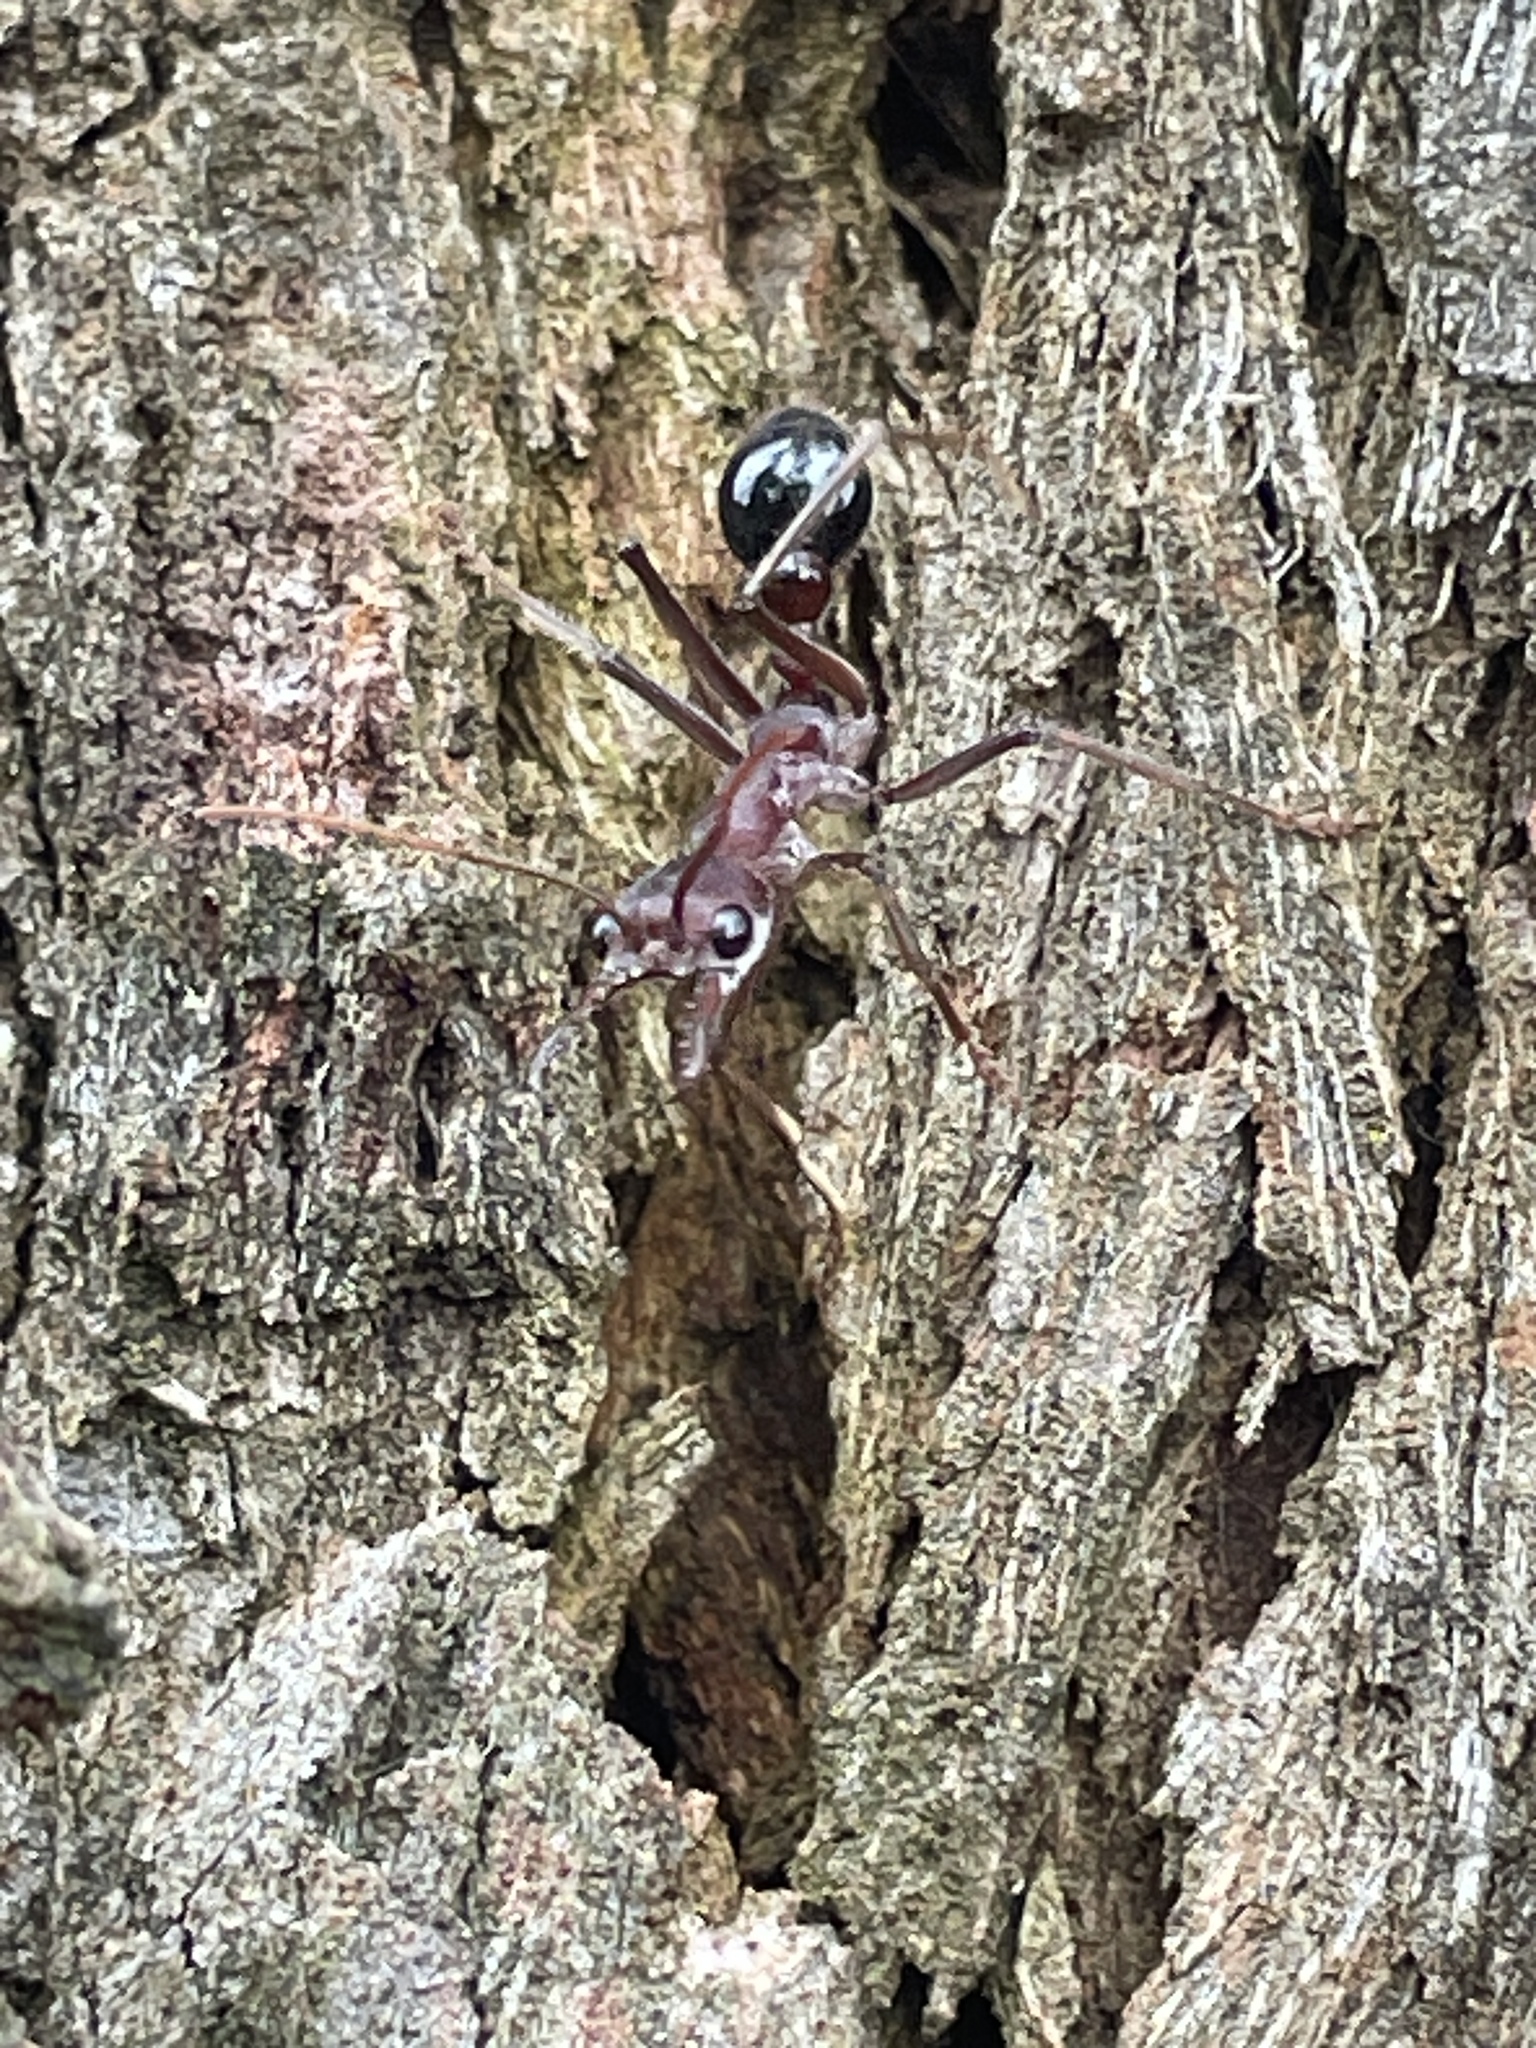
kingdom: Animalia
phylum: Arthropoda
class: Insecta
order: Hymenoptera
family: Formicidae
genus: Myrmecia
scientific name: Myrmecia simillima
